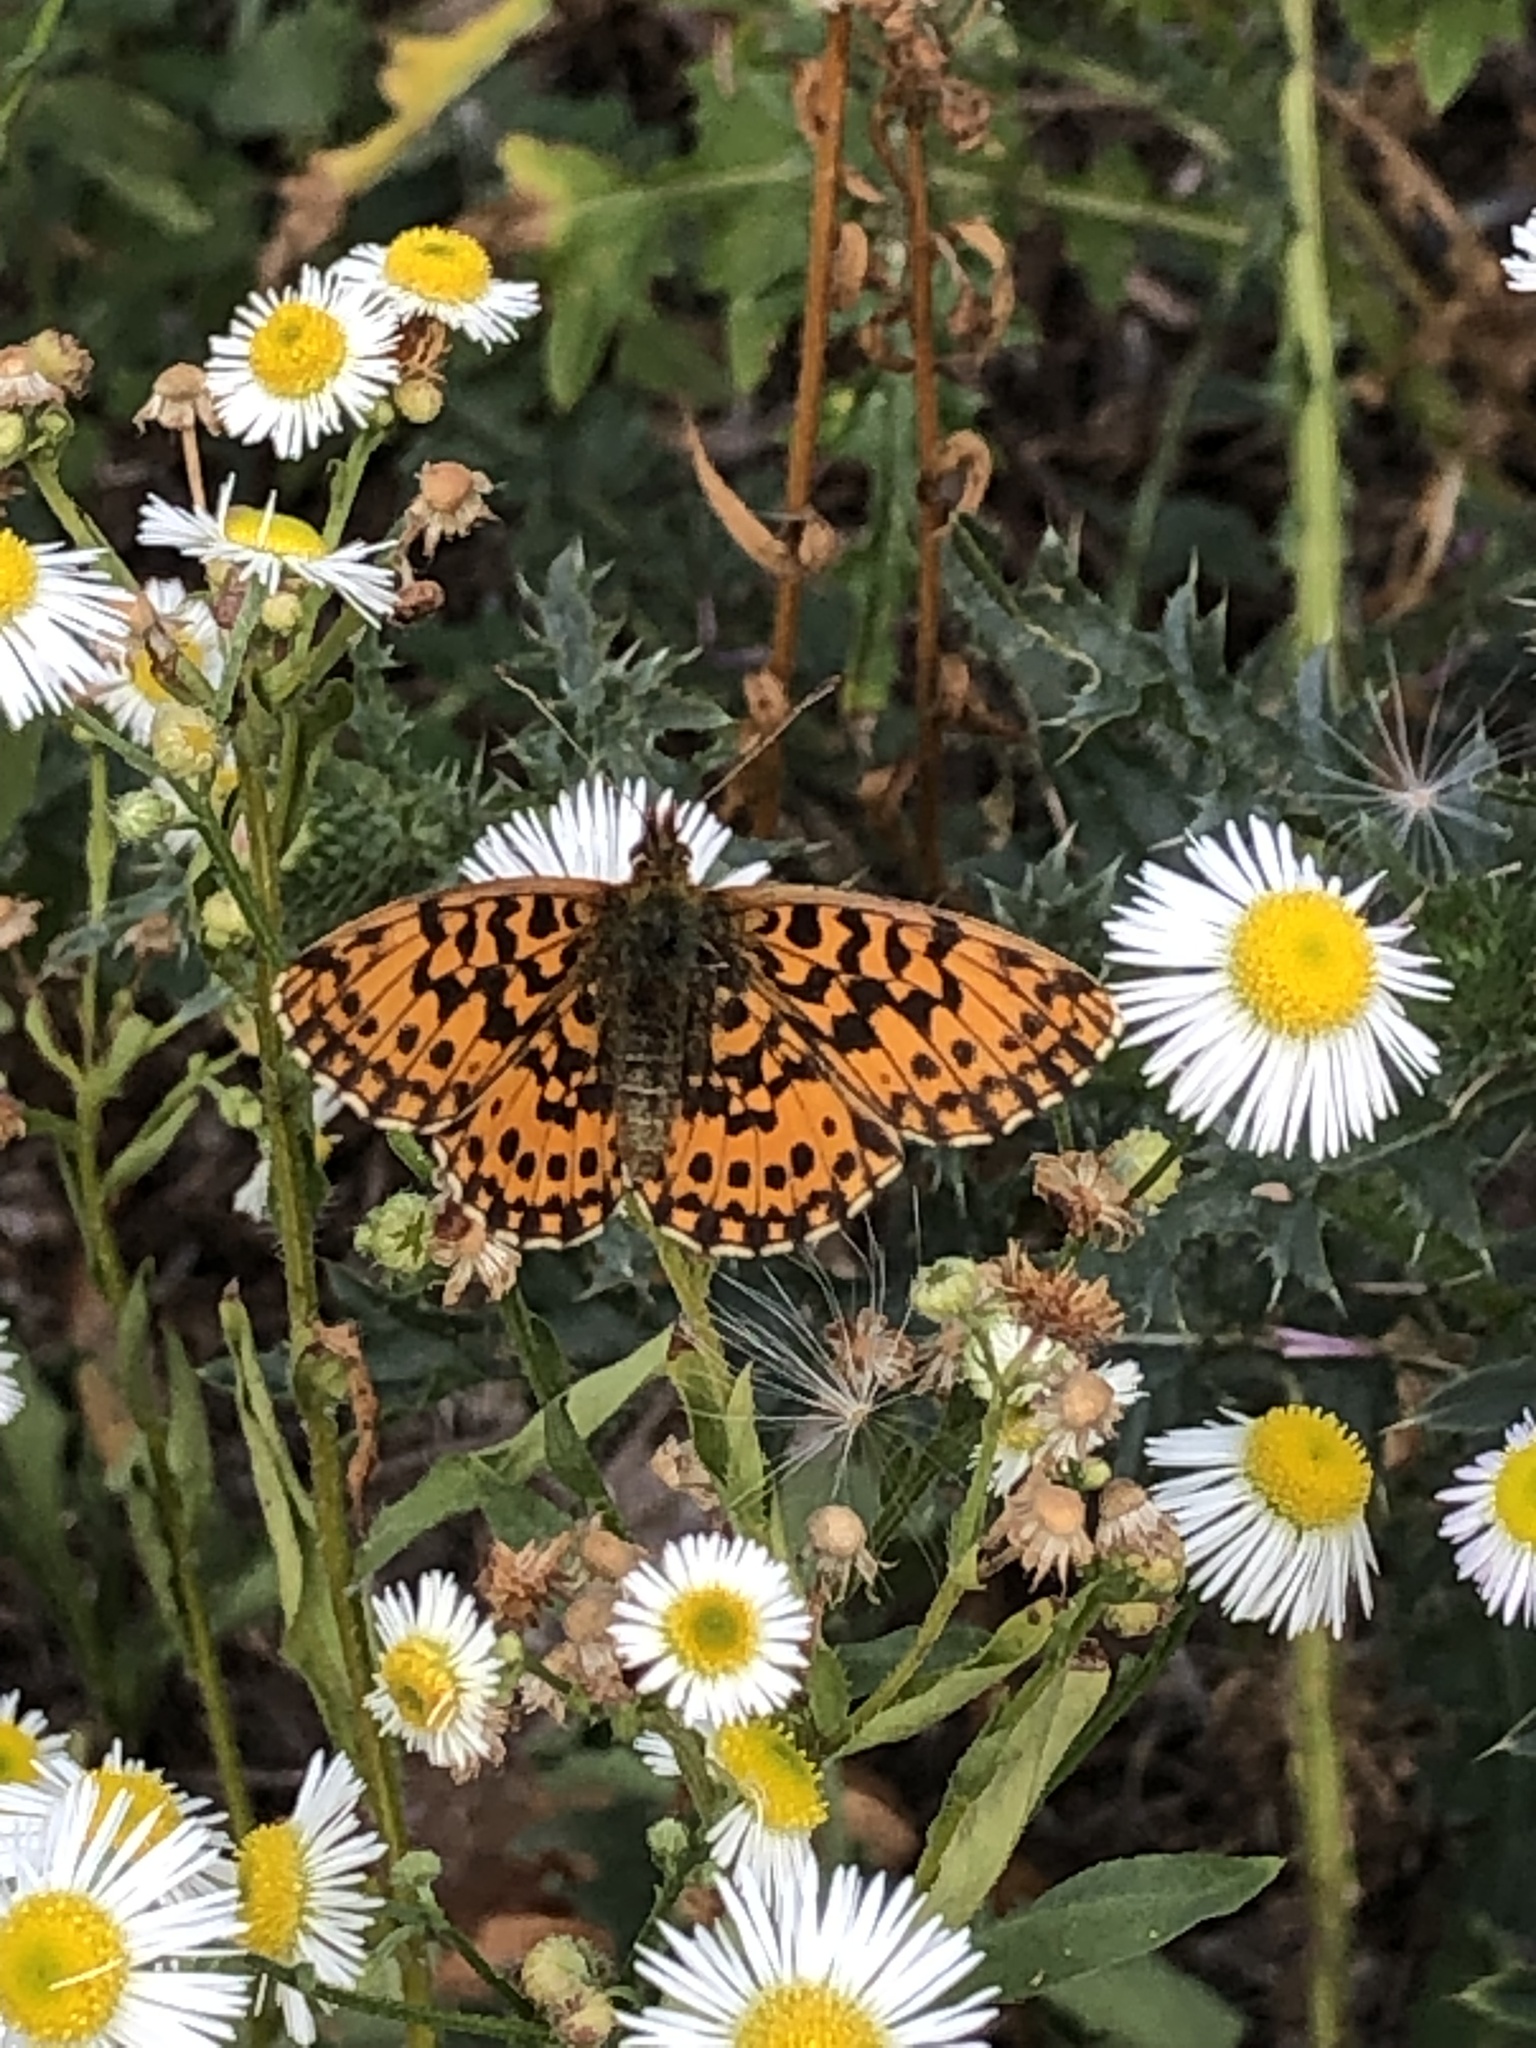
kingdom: Animalia
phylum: Arthropoda
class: Insecta
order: Lepidoptera
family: Nymphalidae
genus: Boloria
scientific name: Boloria dia
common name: Weaver's fritillary
